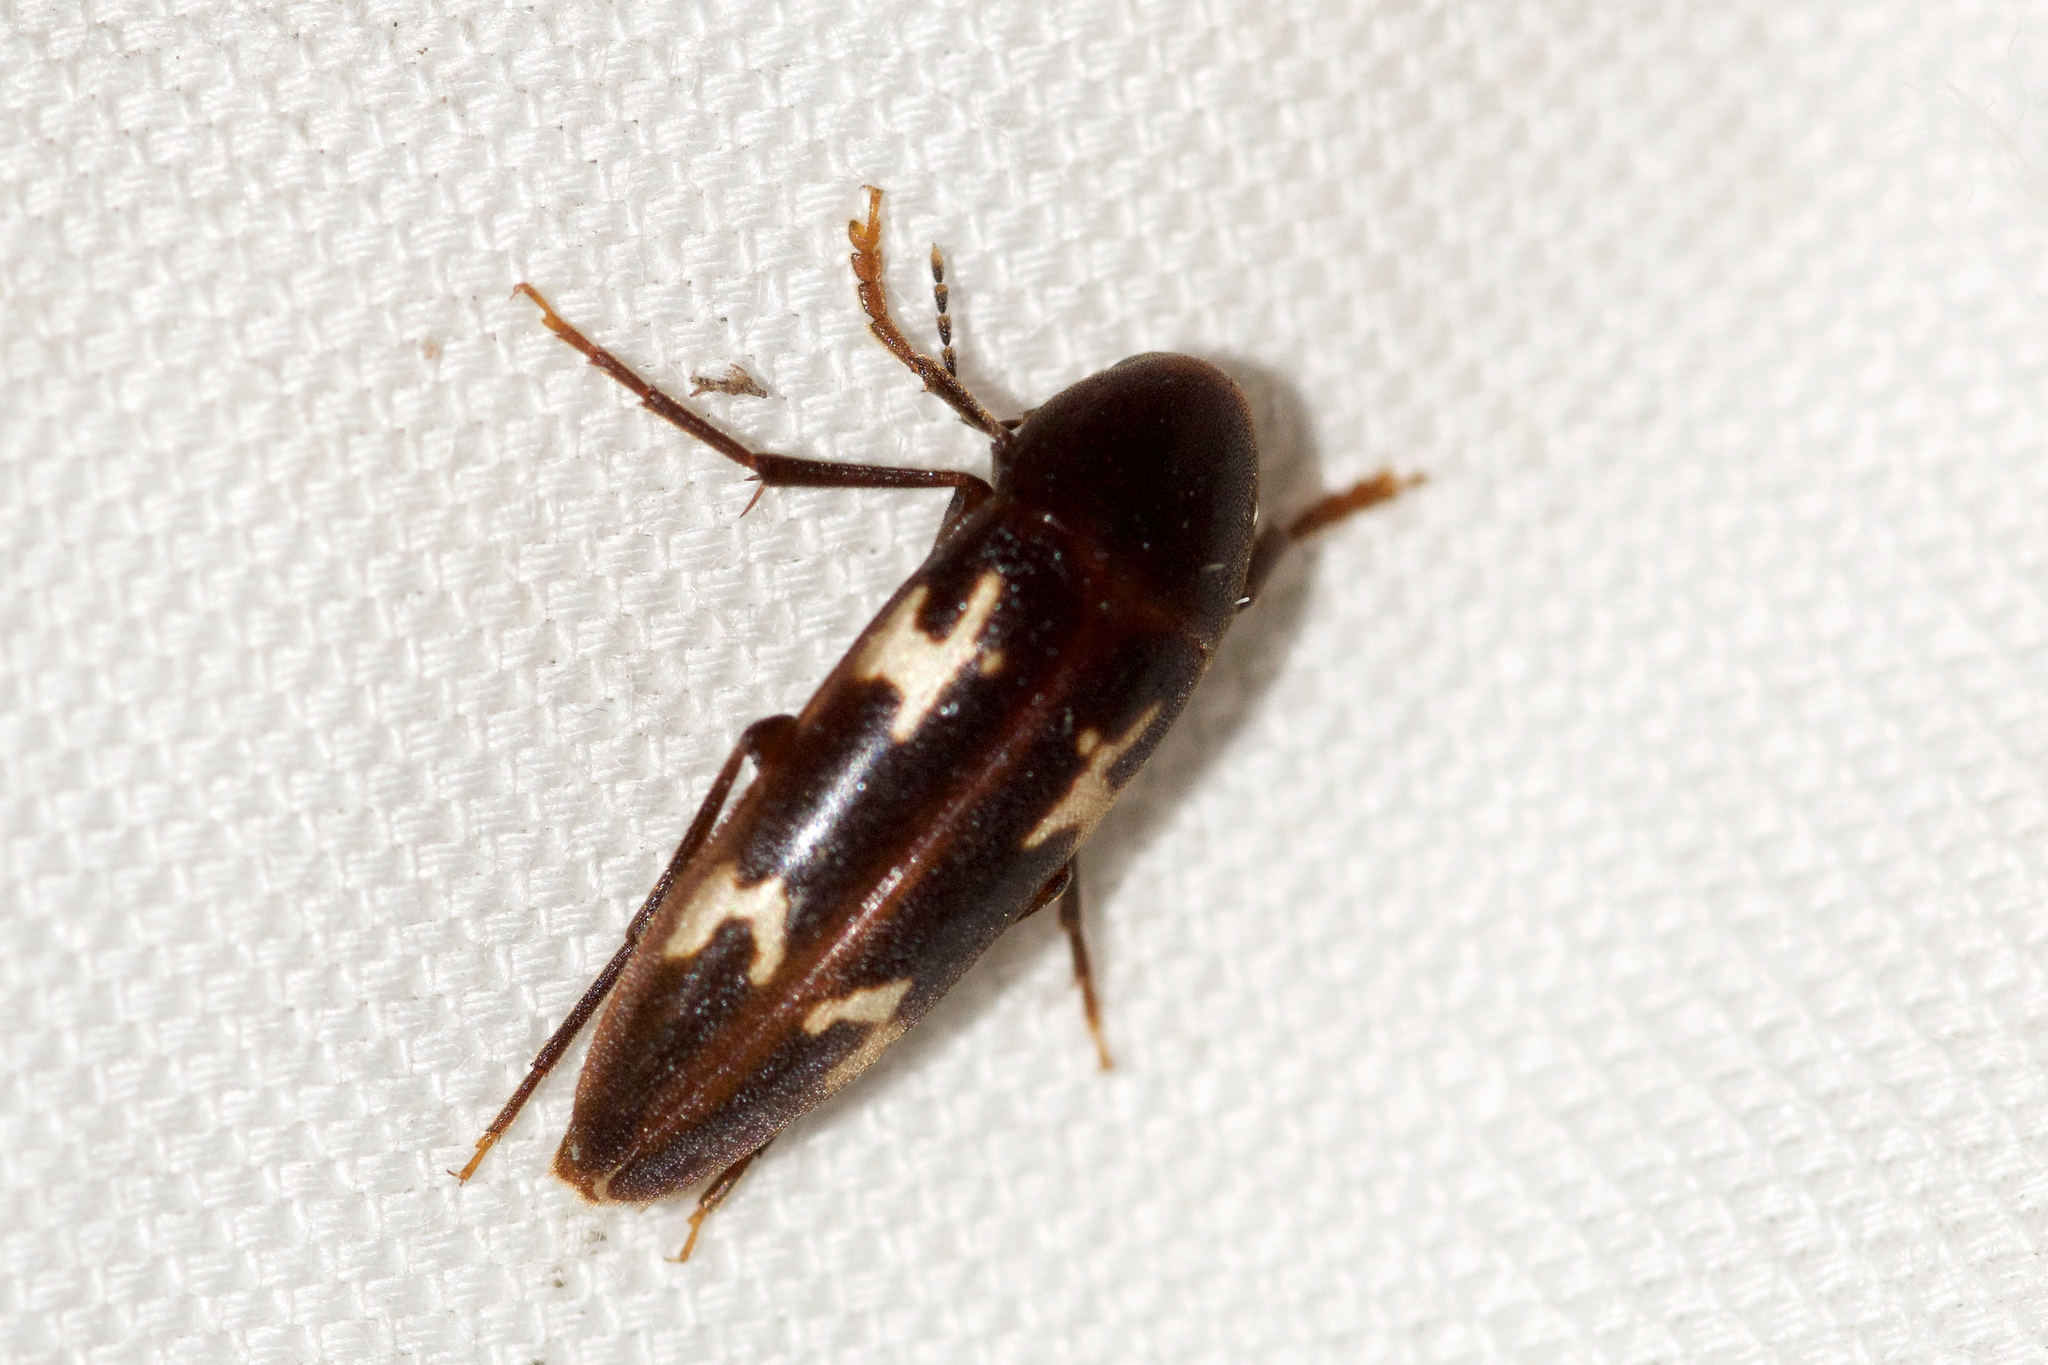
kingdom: Animalia
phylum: Arthropoda
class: Insecta
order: Coleoptera
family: Melandryidae
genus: Dircaea
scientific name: Dircaea liturata
